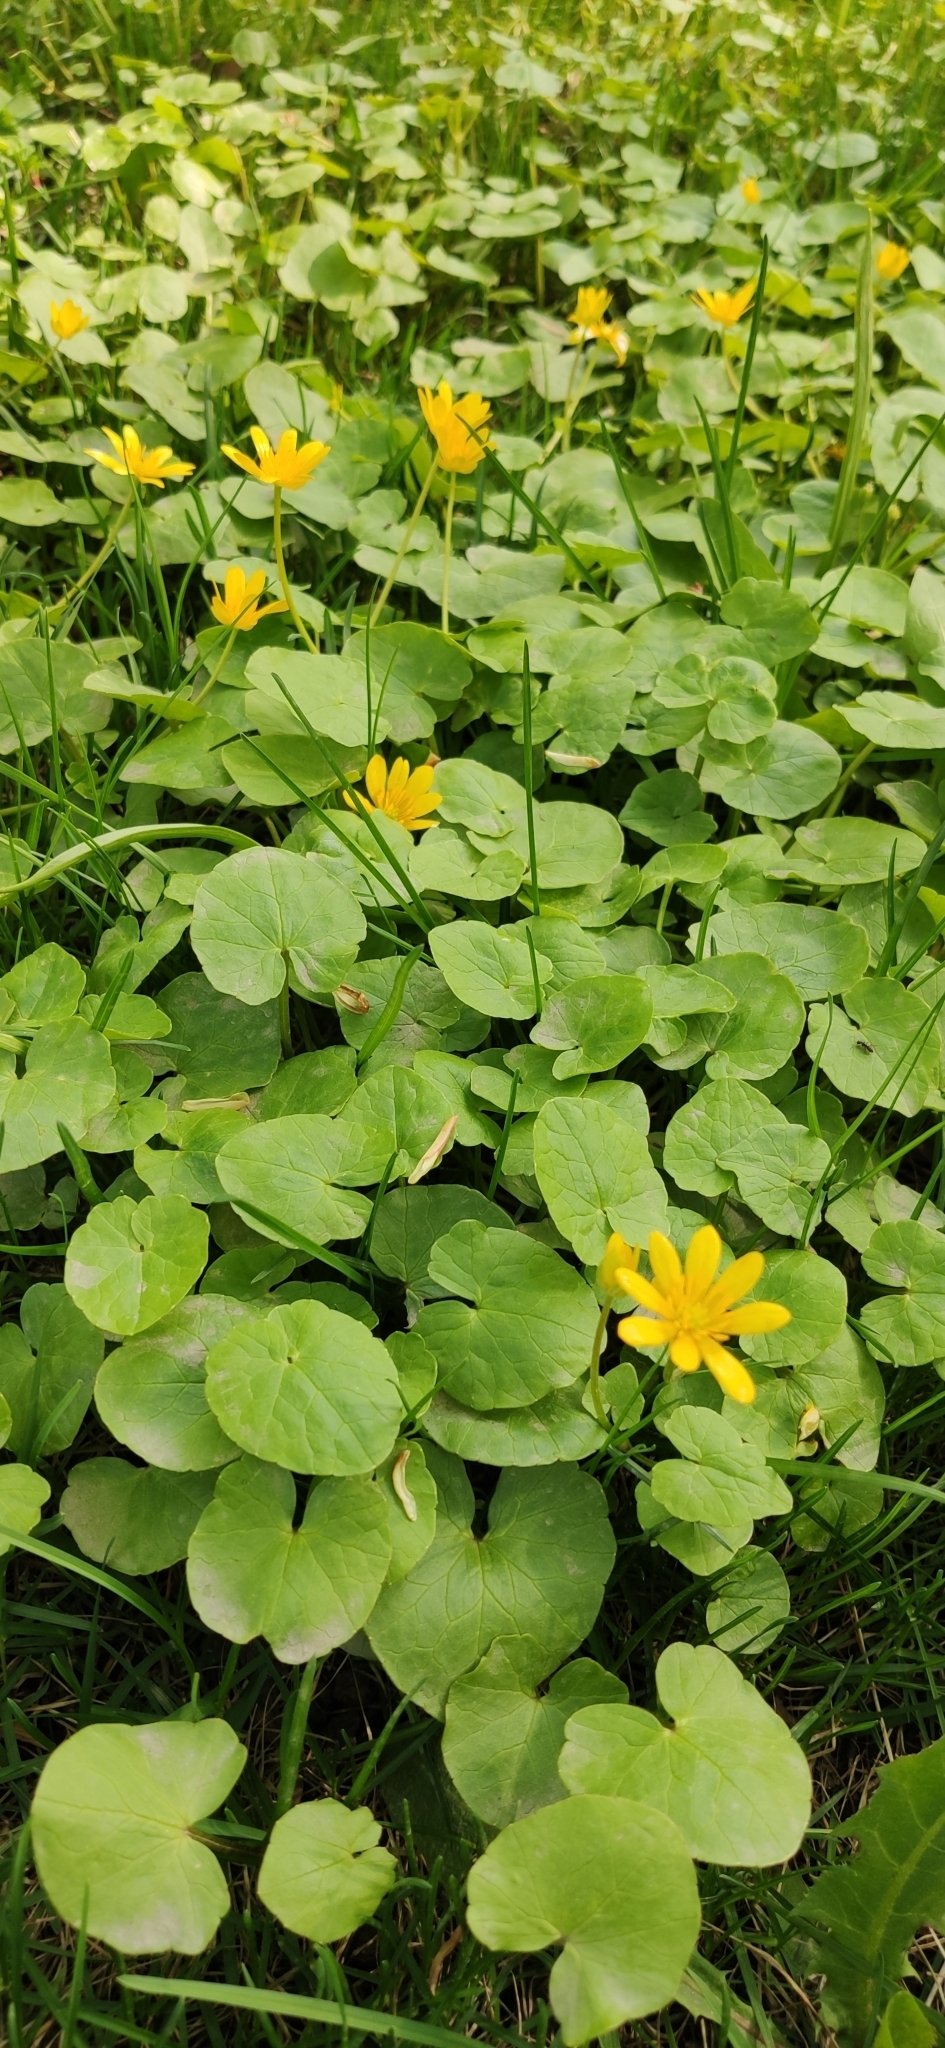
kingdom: Plantae
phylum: Tracheophyta
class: Magnoliopsida
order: Ranunculales
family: Ranunculaceae
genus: Ficaria
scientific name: Ficaria verna
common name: Lesser celandine
